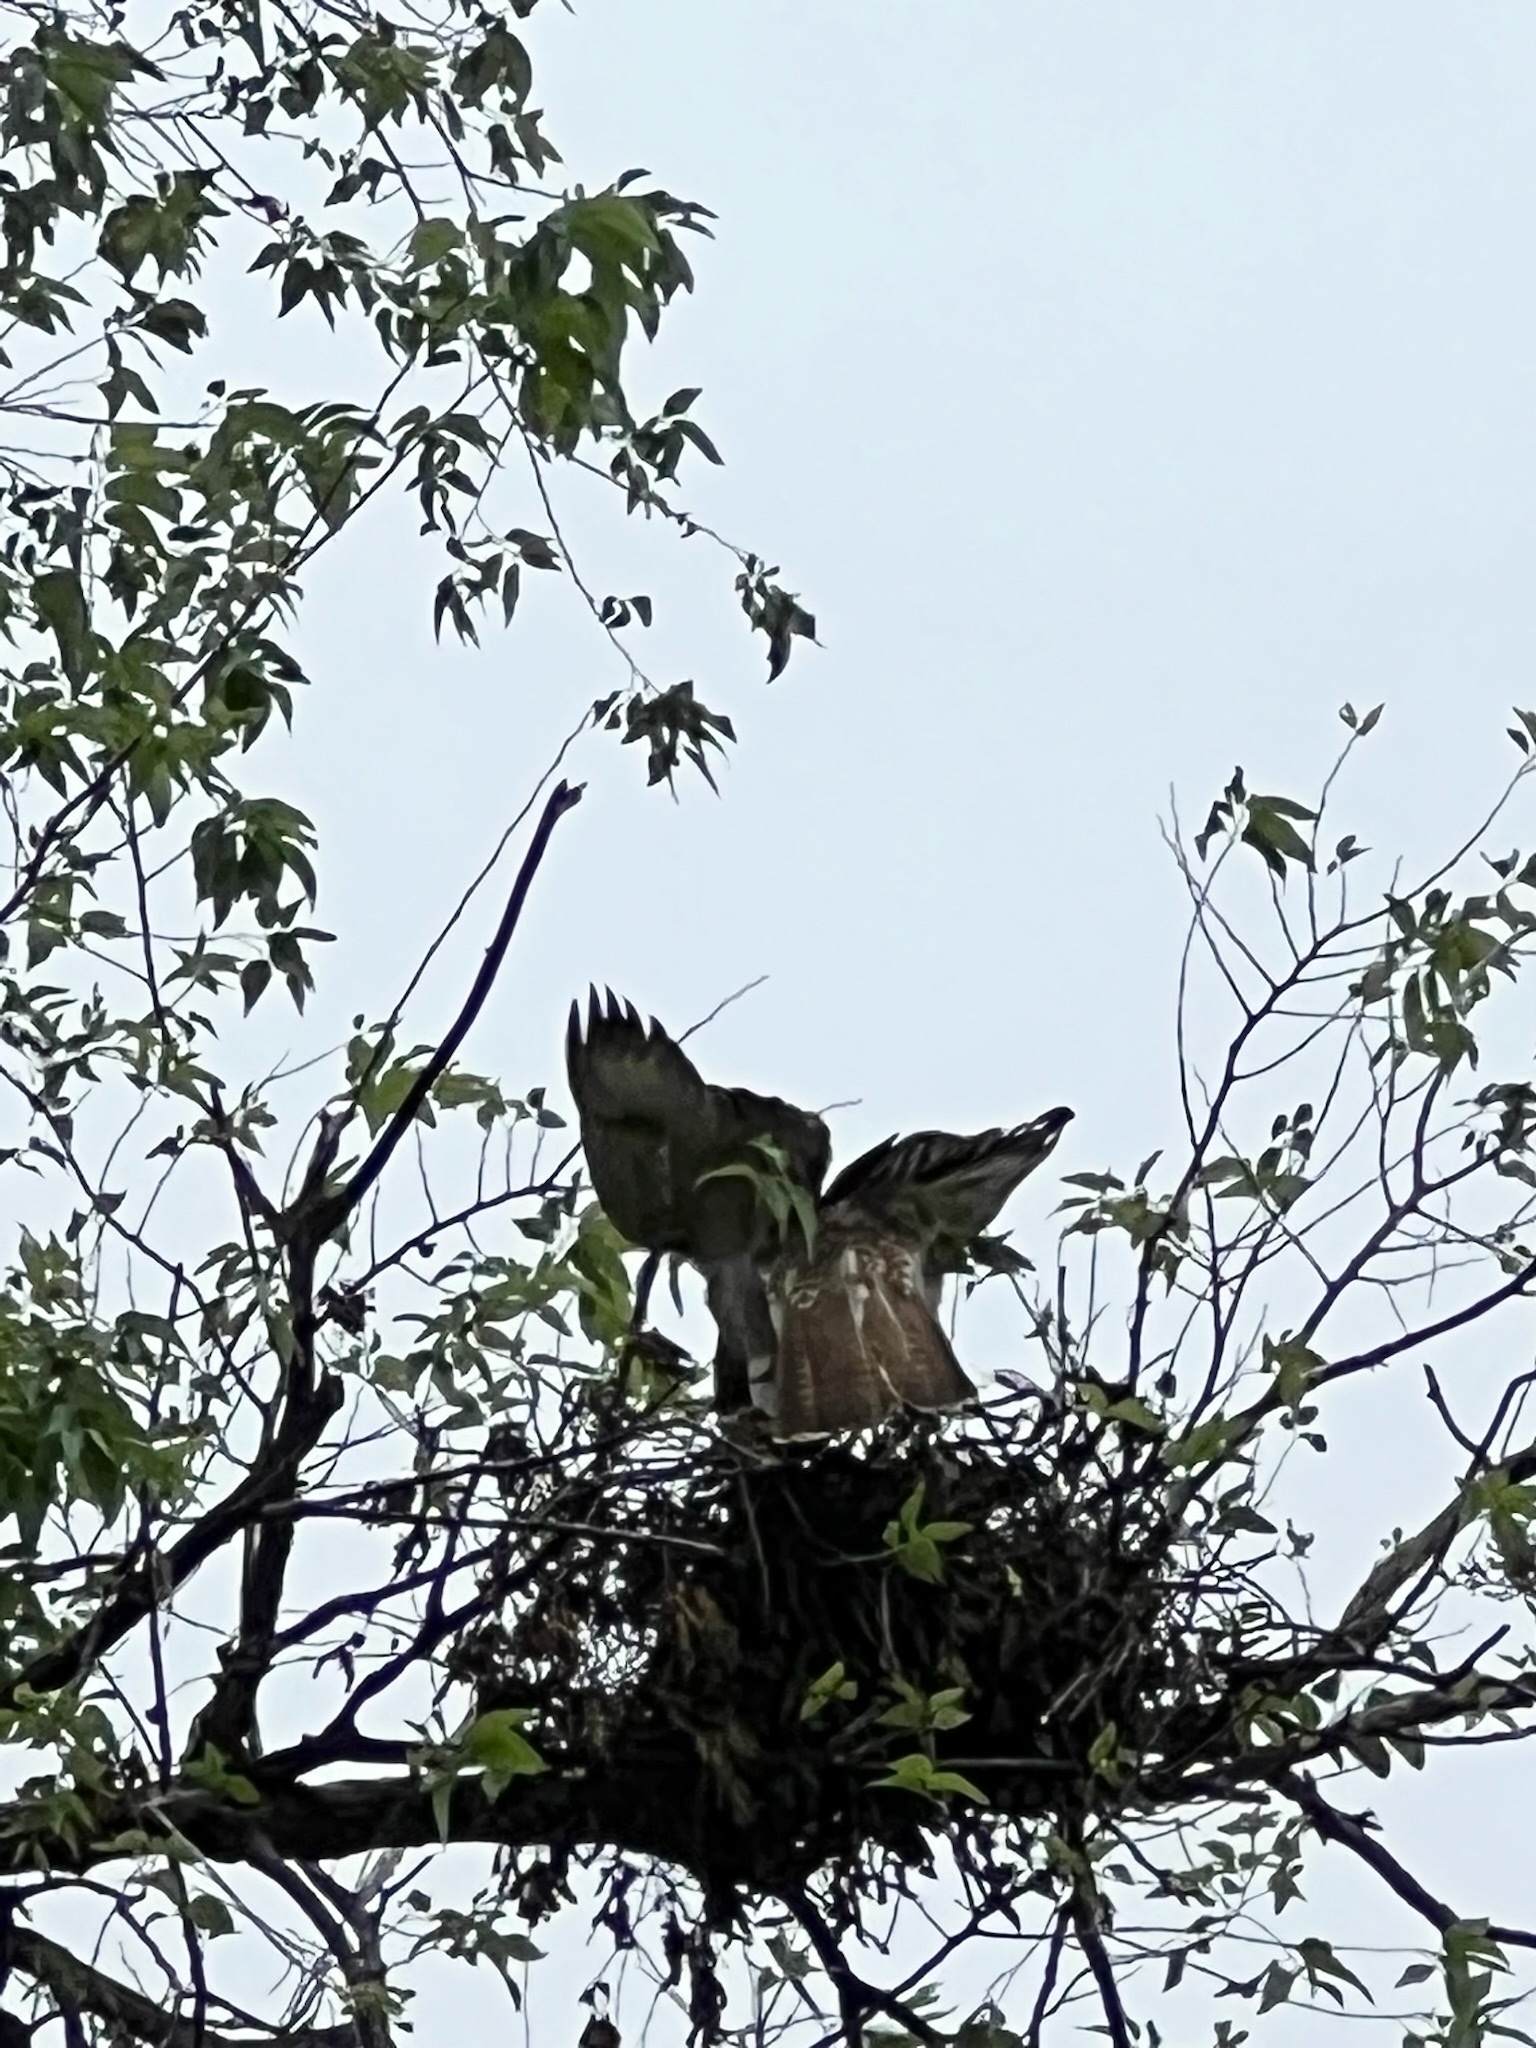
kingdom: Animalia
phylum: Chordata
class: Aves
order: Accipitriformes
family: Accipitridae
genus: Buteo
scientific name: Buteo jamaicensis
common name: Red-tailed hawk
